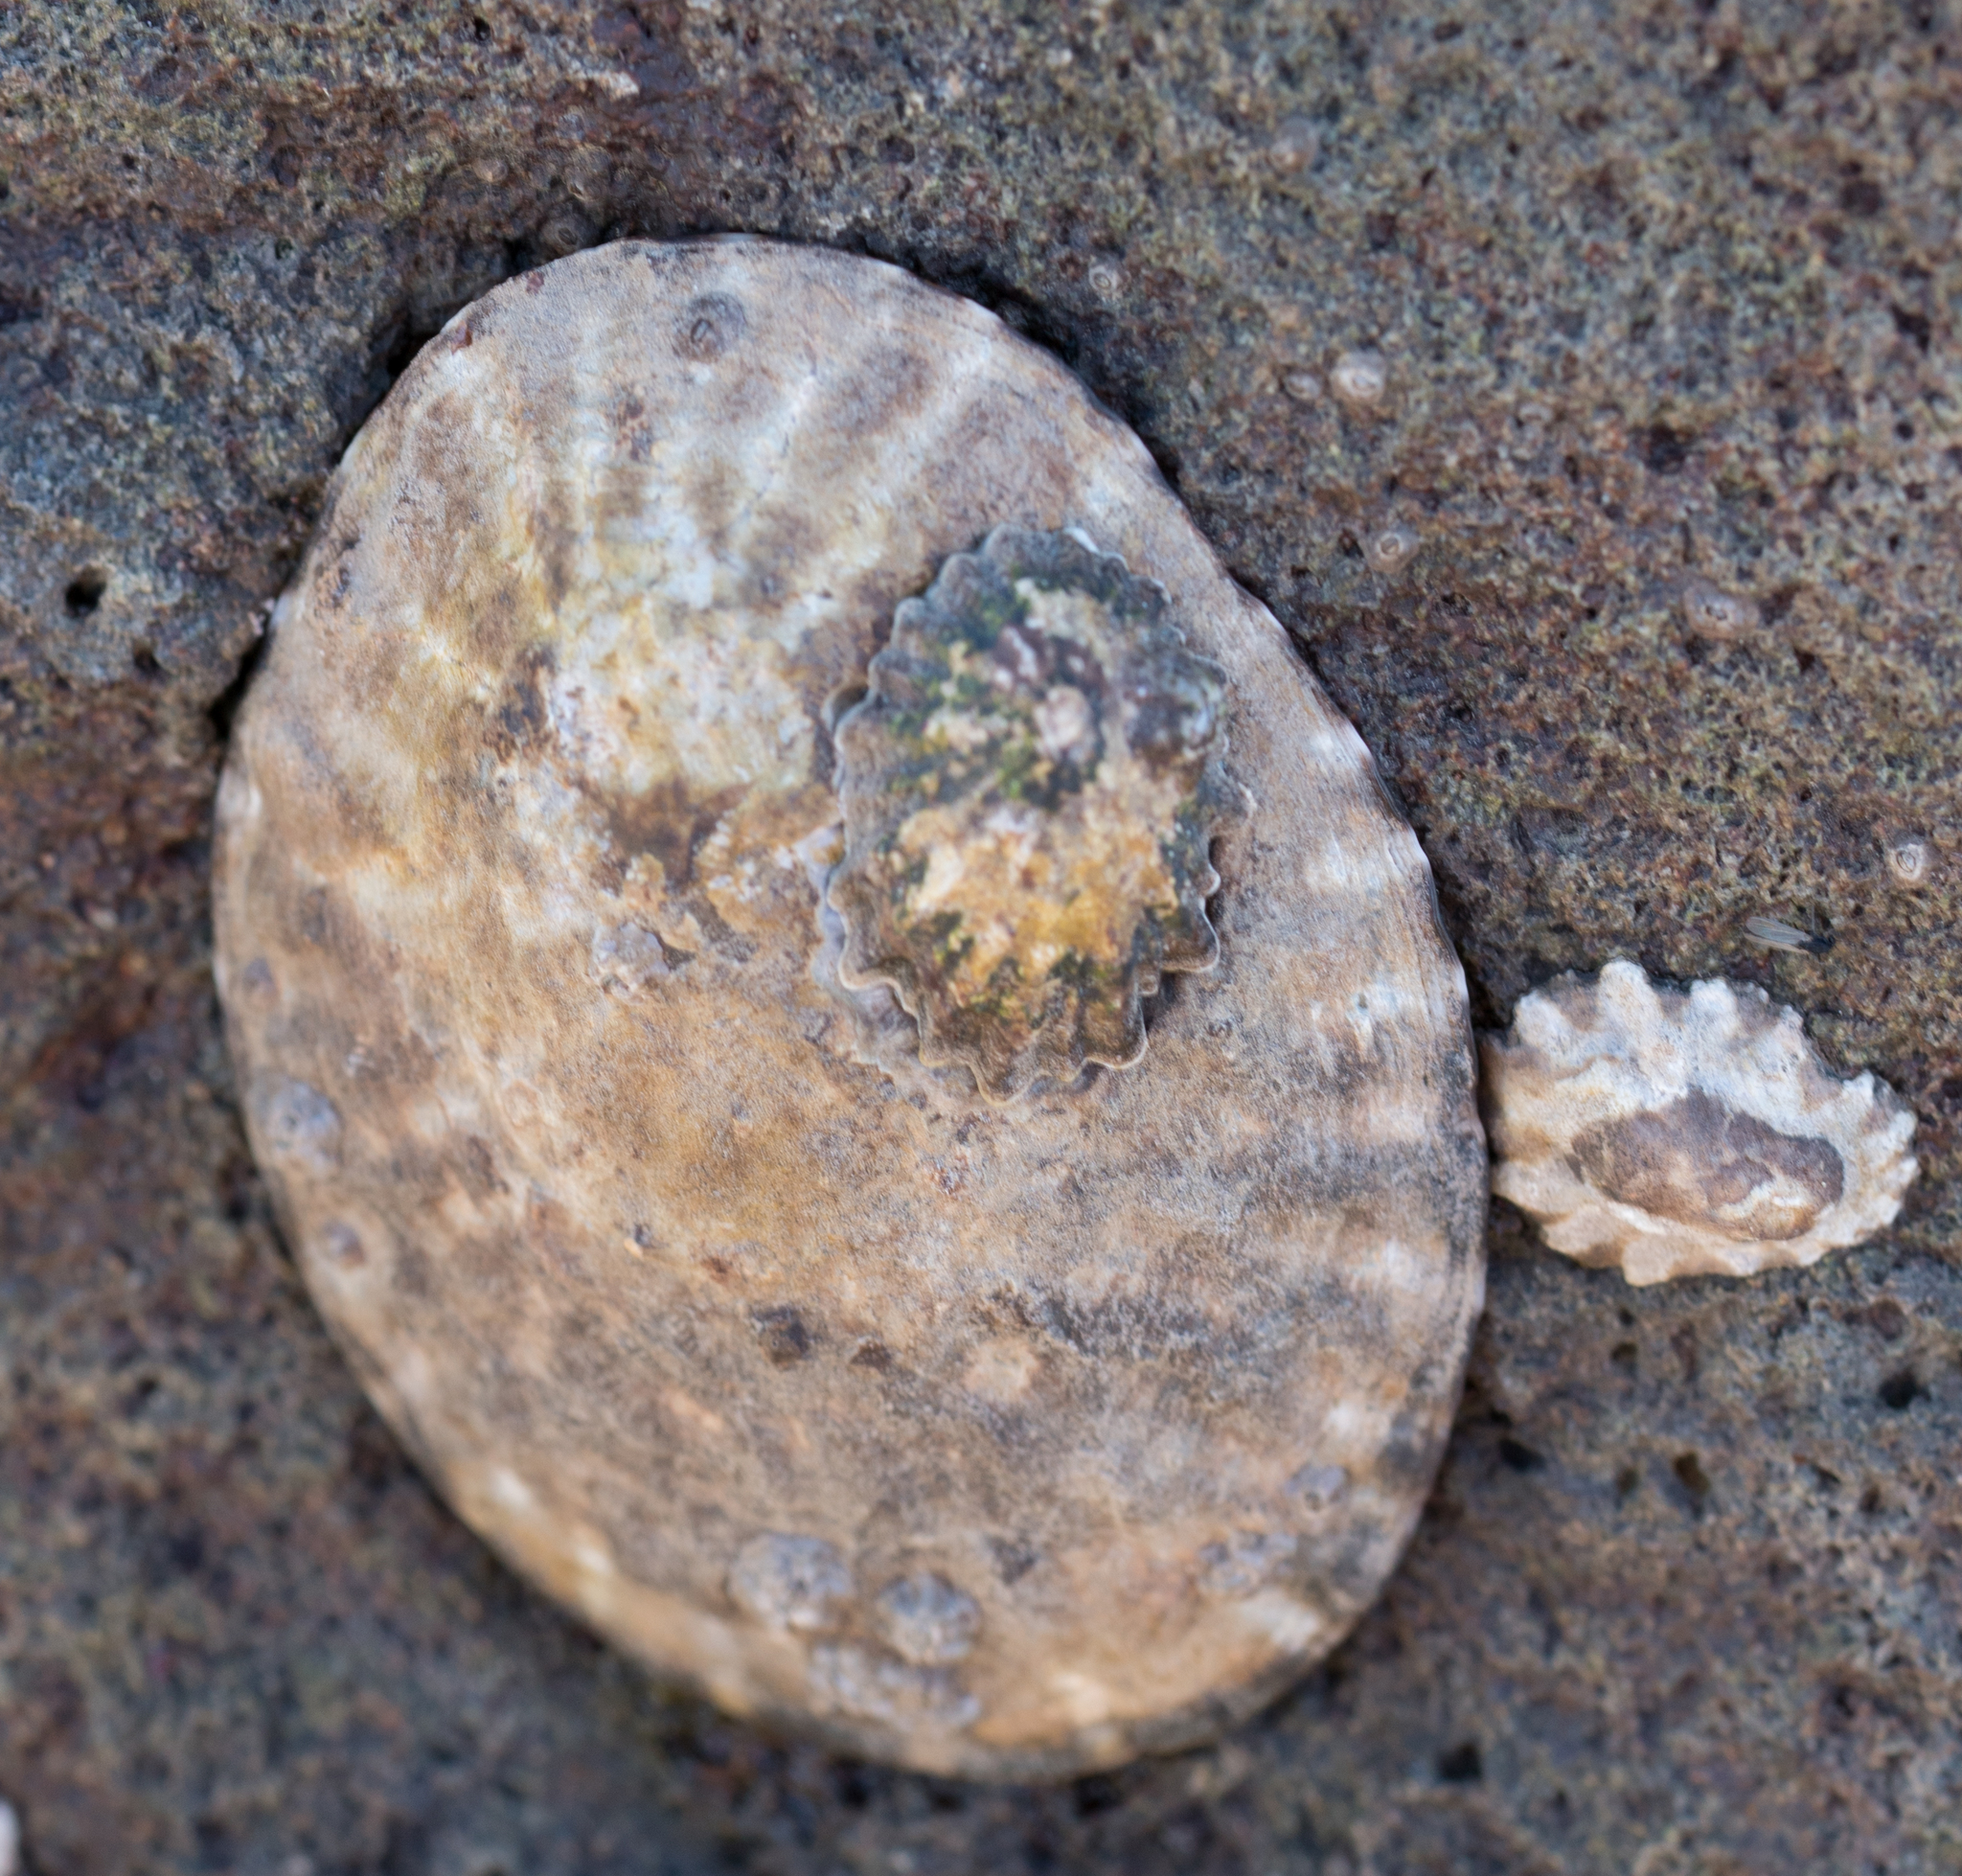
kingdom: Animalia
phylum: Mollusca
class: Gastropoda
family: Lottiidae
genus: Lottia
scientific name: Lottia gigantea
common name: Owl limpet
